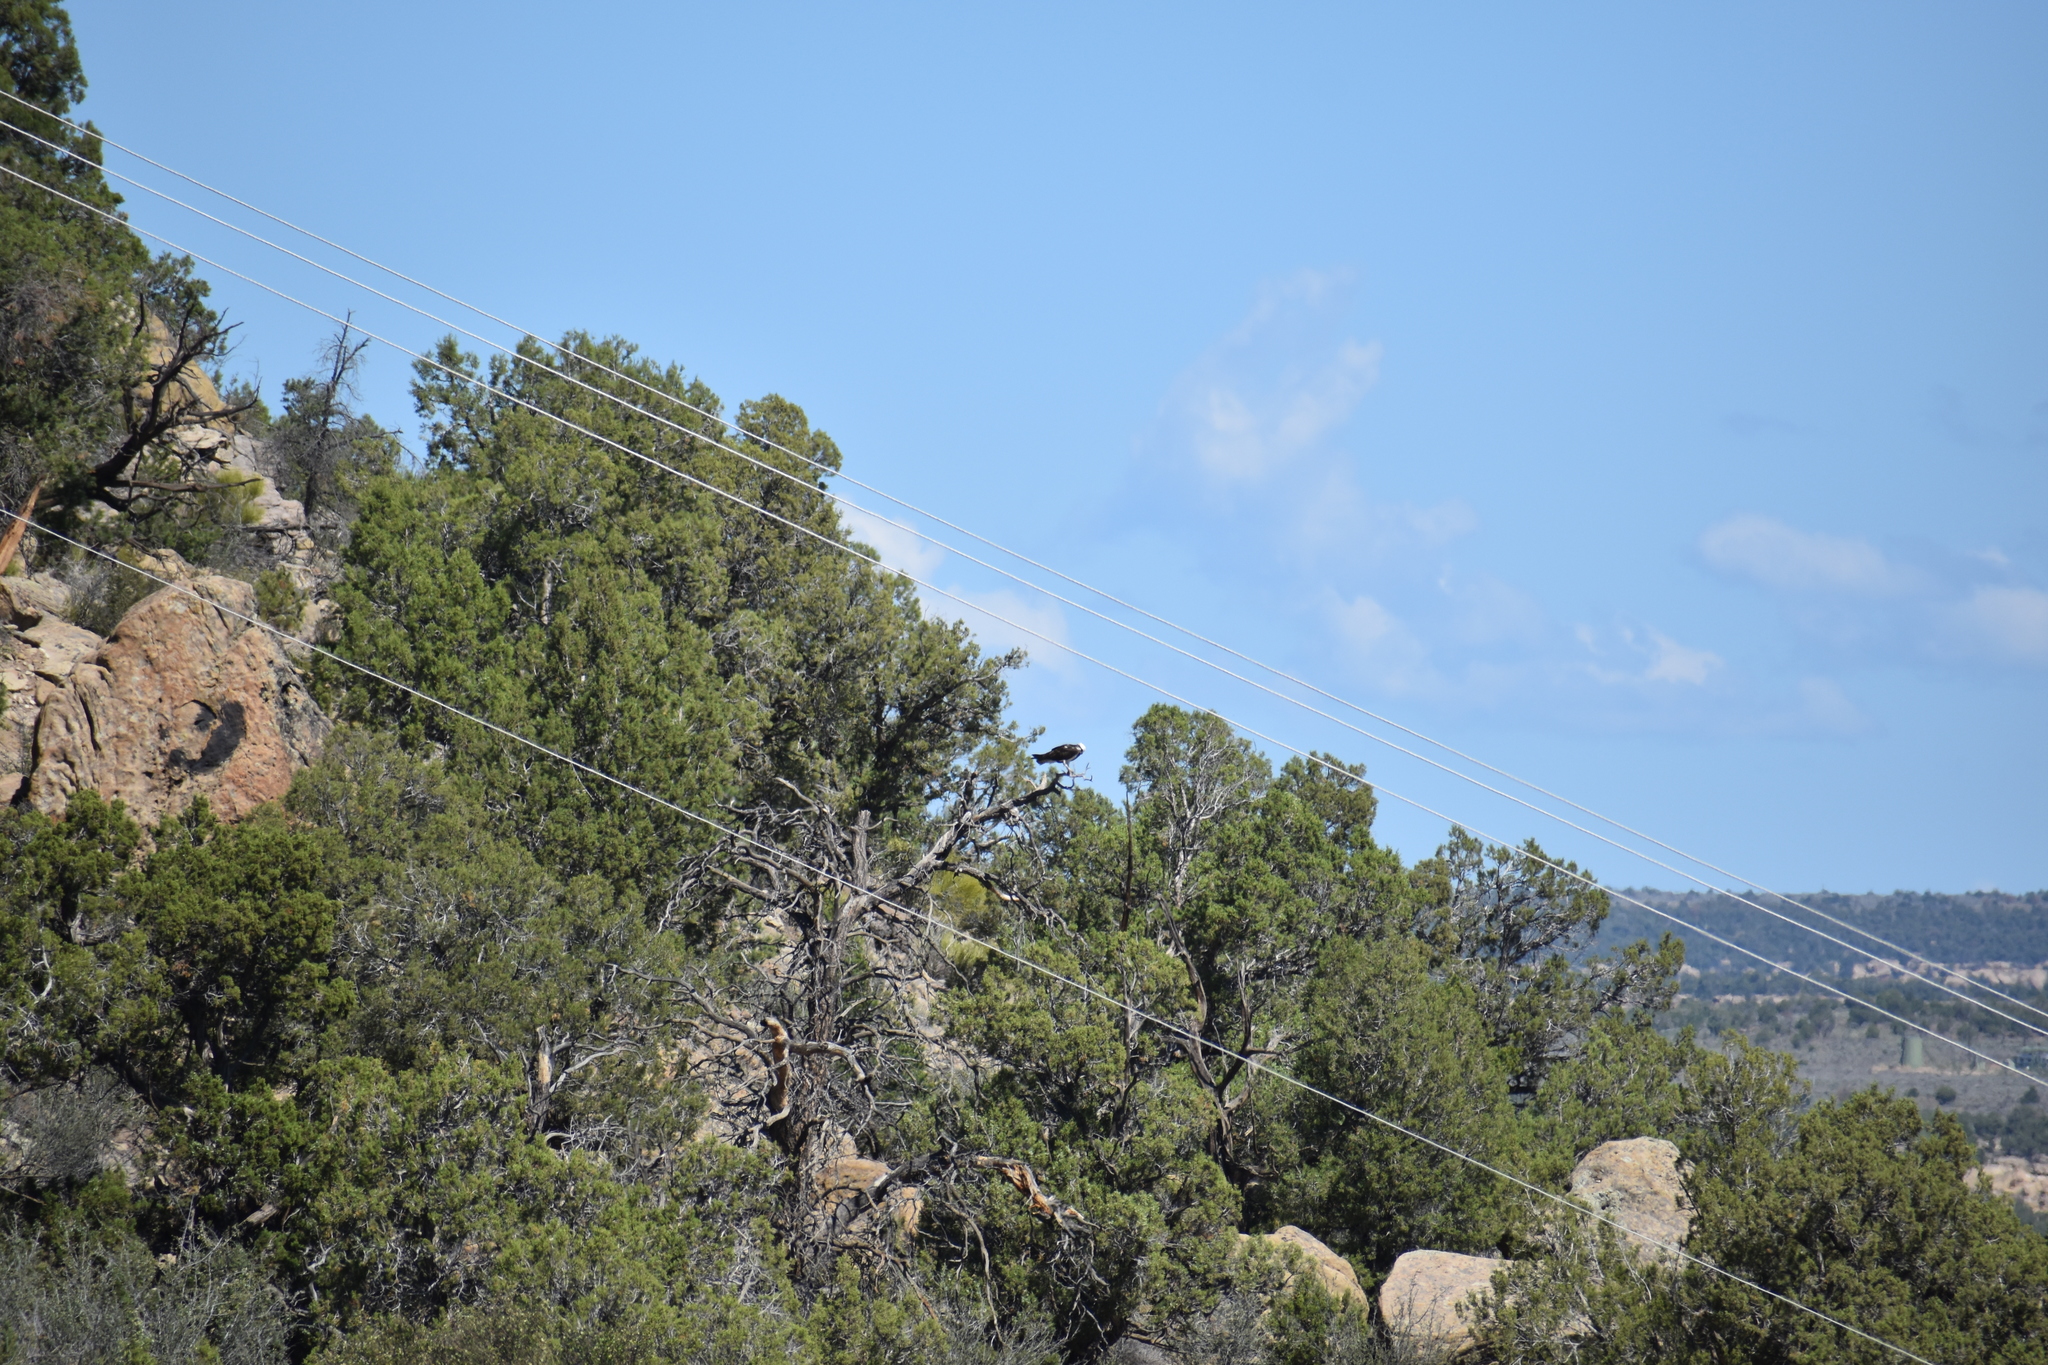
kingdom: Animalia
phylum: Chordata
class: Aves
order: Accipitriformes
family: Pandionidae
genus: Pandion
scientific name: Pandion haliaetus
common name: Osprey
